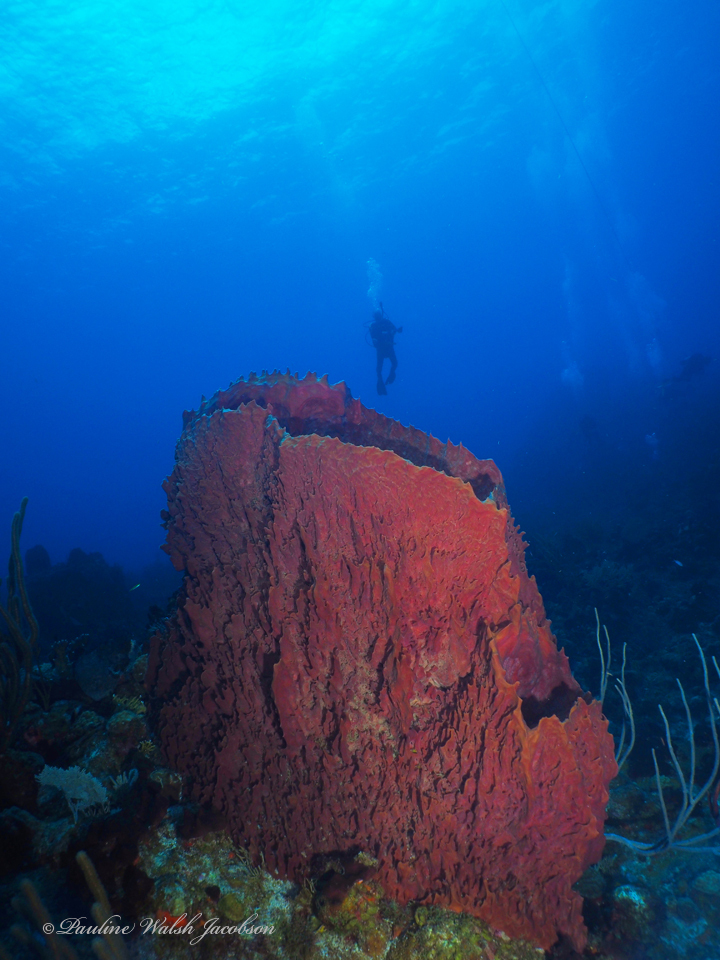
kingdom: Animalia
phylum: Porifera
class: Demospongiae
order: Haplosclerida
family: Petrosiidae
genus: Xestospongia
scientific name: Xestospongia muta
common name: Giant barrel sponge
